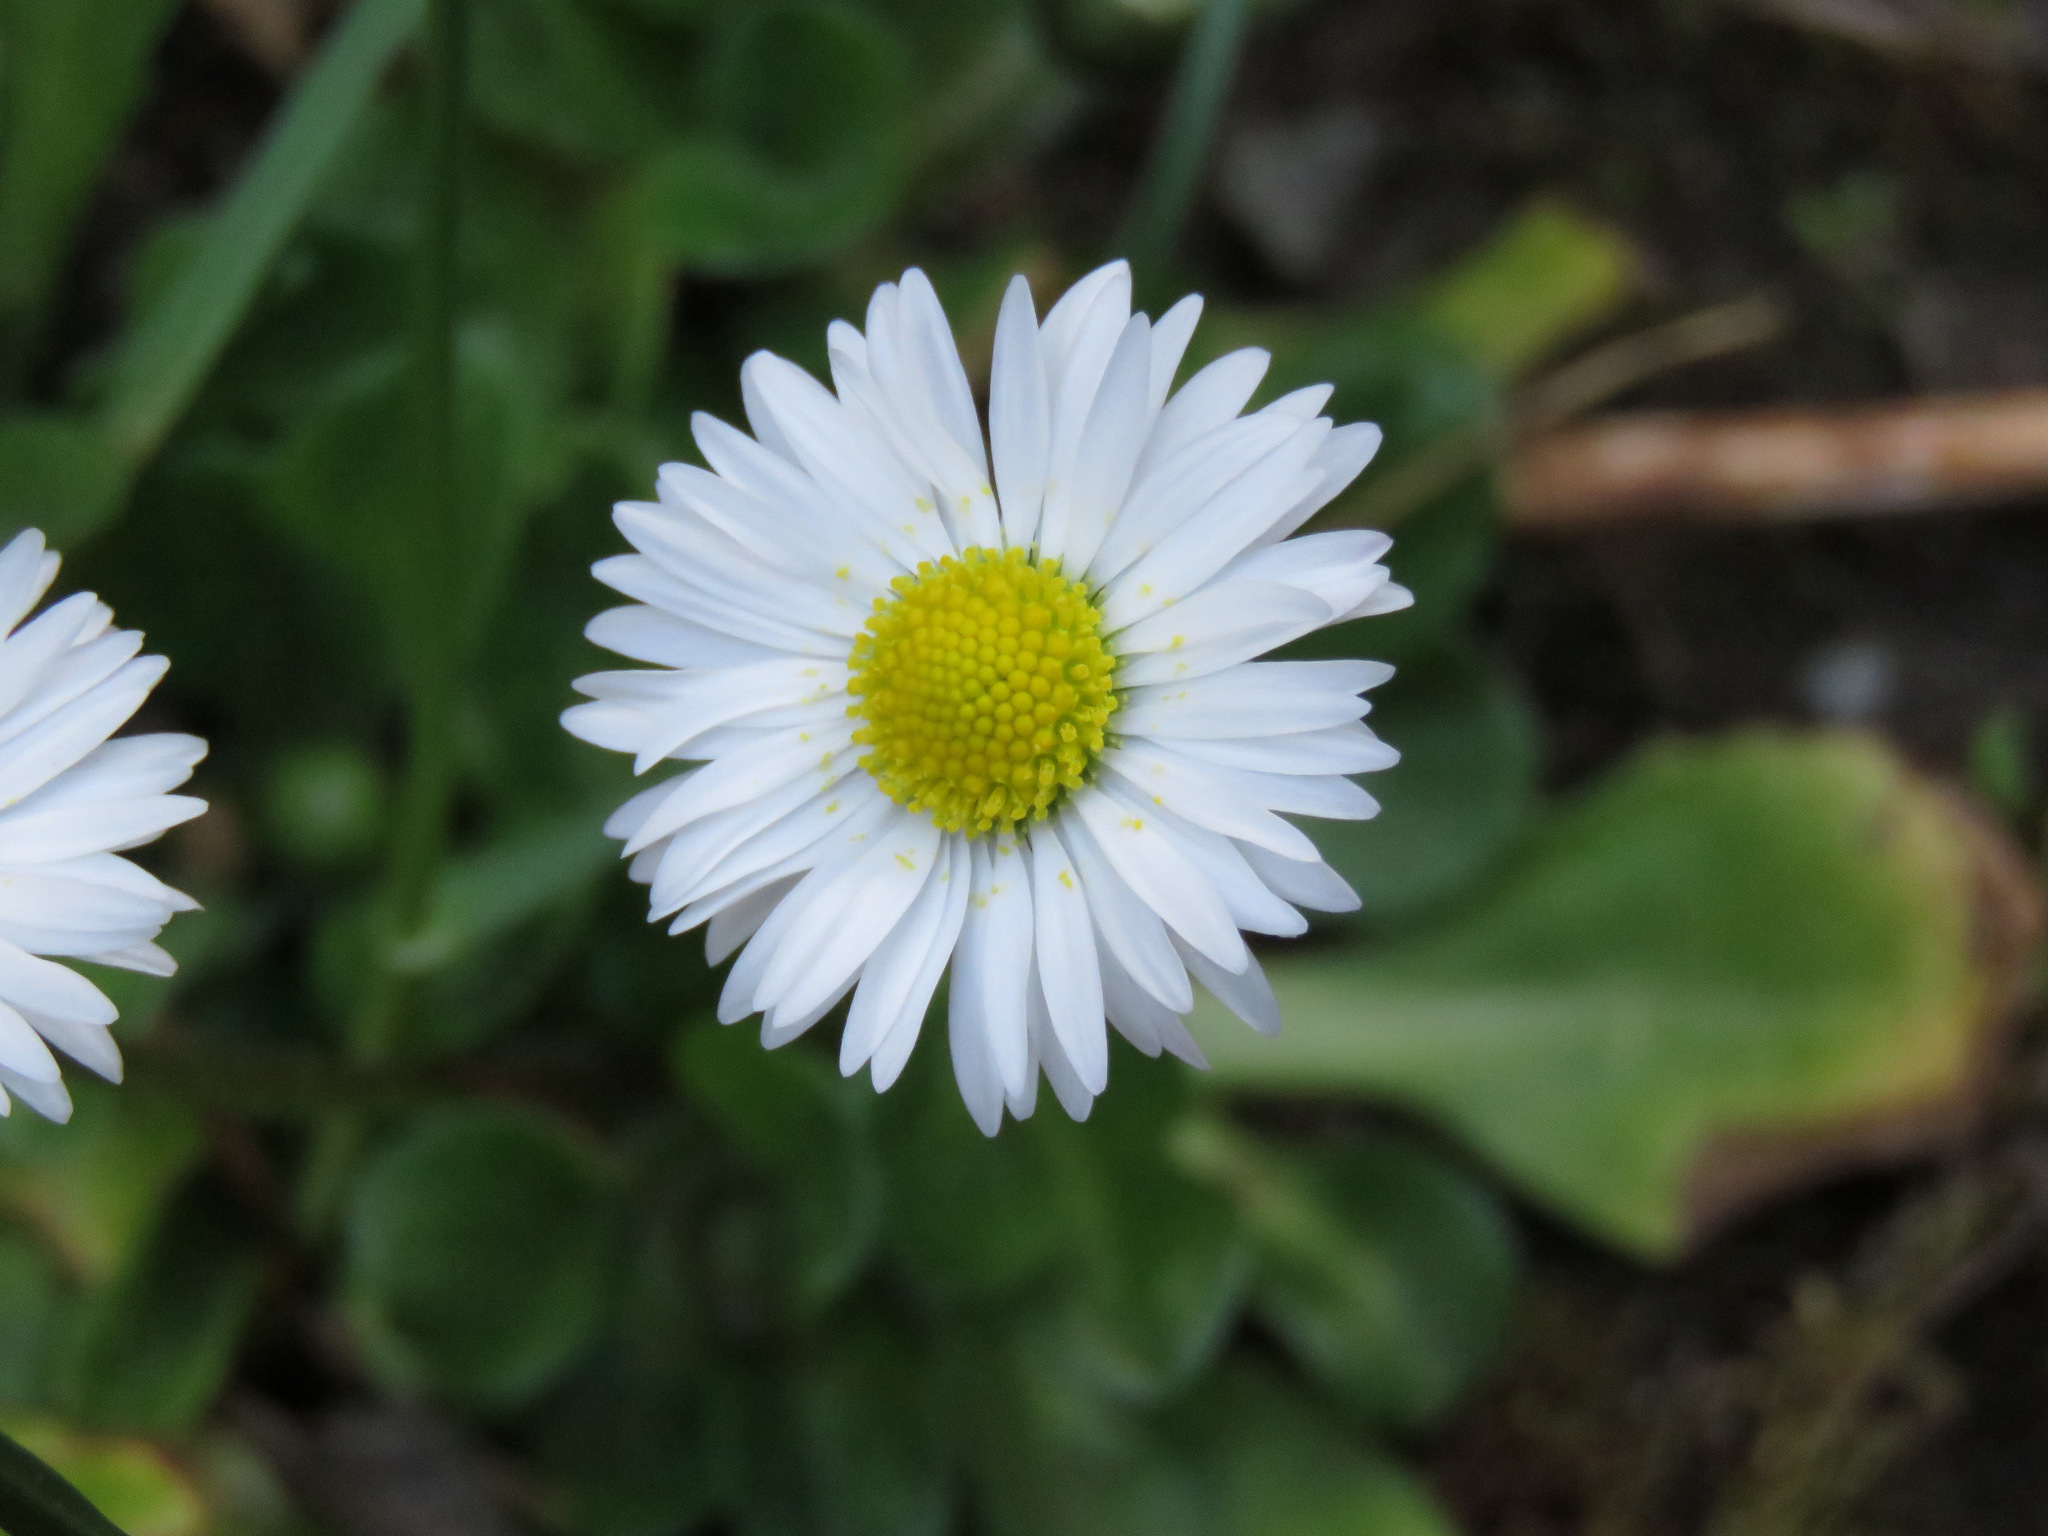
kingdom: Plantae
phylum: Tracheophyta
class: Magnoliopsida
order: Asterales
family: Asteraceae
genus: Bellis
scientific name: Bellis perennis
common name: Lawndaisy
